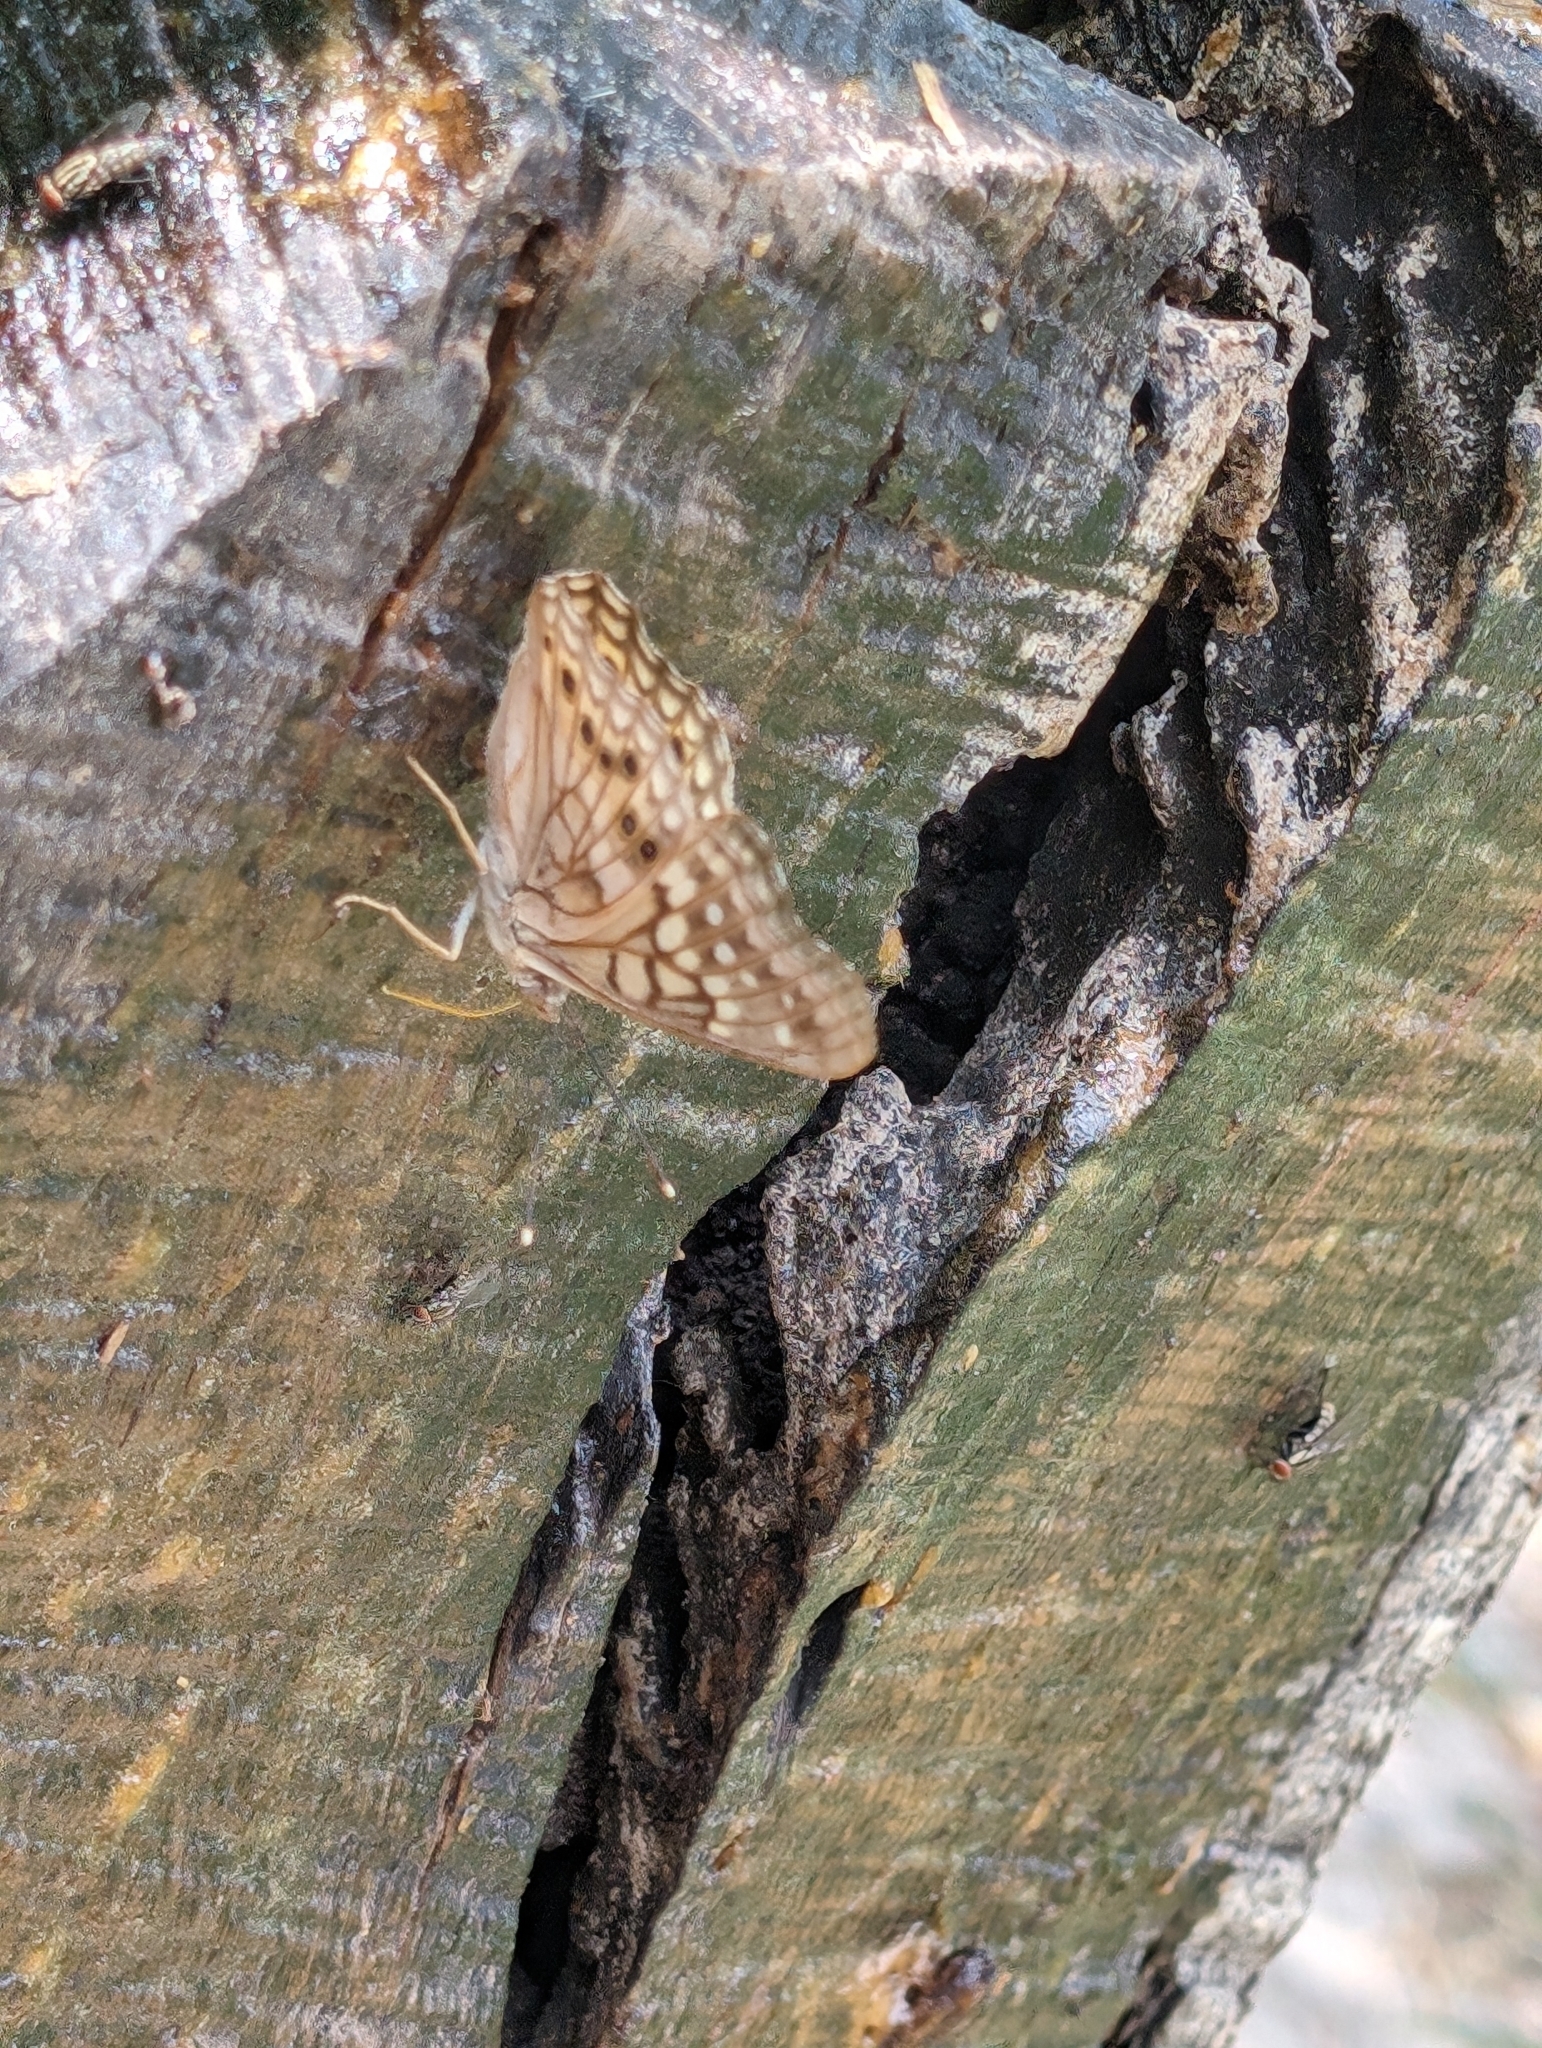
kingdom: Animalia
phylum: Arthropoda
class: Insecta
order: Lepidoptera
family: Nymphalidae
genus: Asterocampa
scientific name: Asterocampa clyton
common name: Tawny emperor
